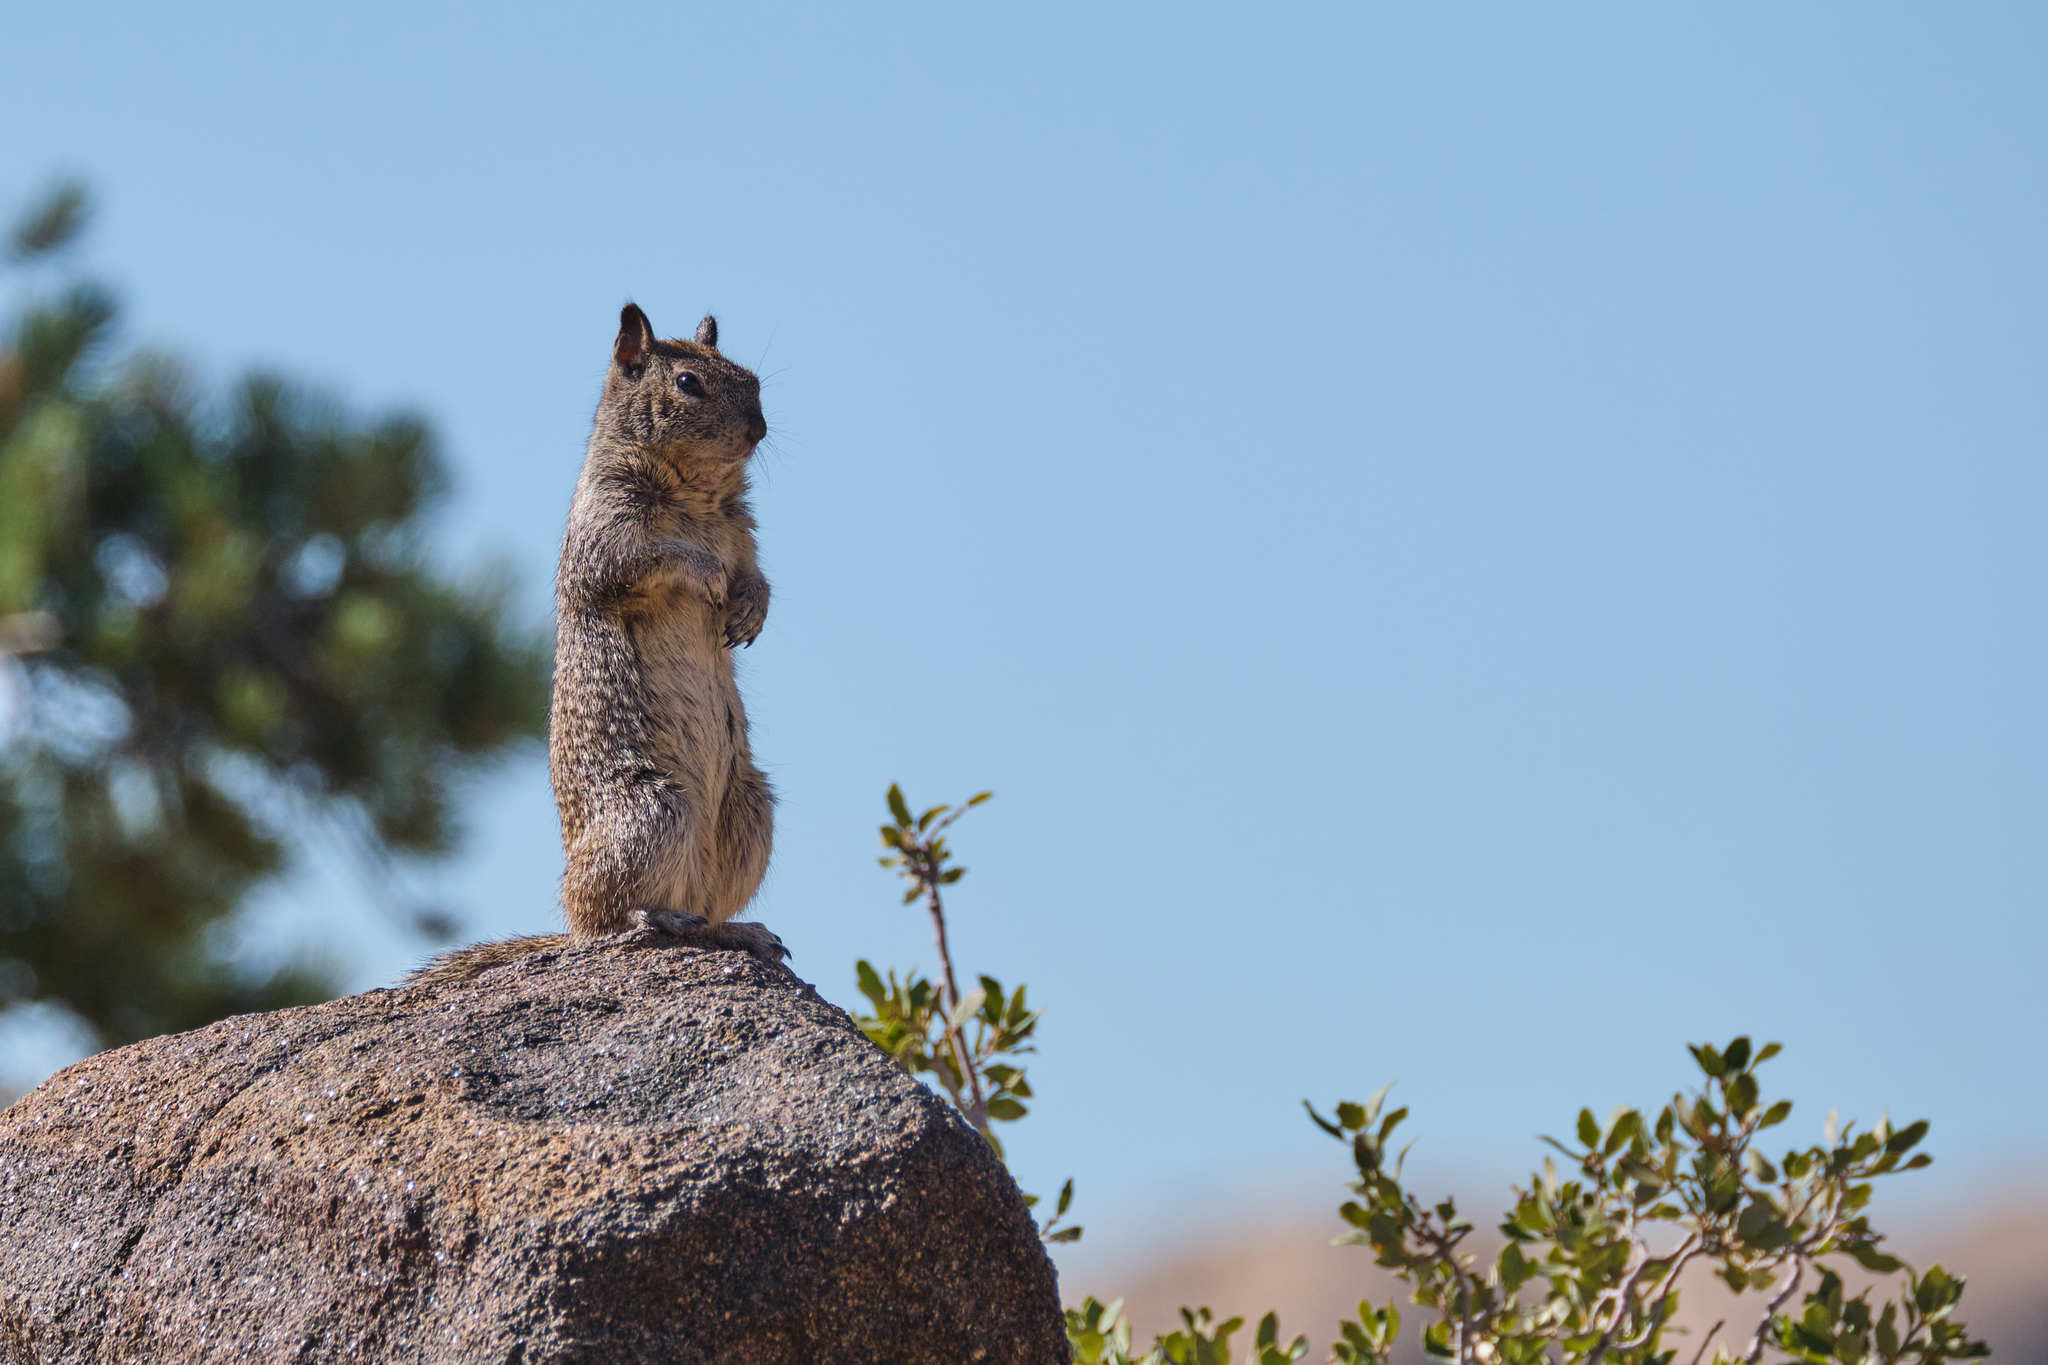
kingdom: Animalia
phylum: Chordata
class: Mammalia
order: Rodentia
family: Sciuridae
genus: Otospermophilus
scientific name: Otospermophilus beecheyi
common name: California ground squirrel
